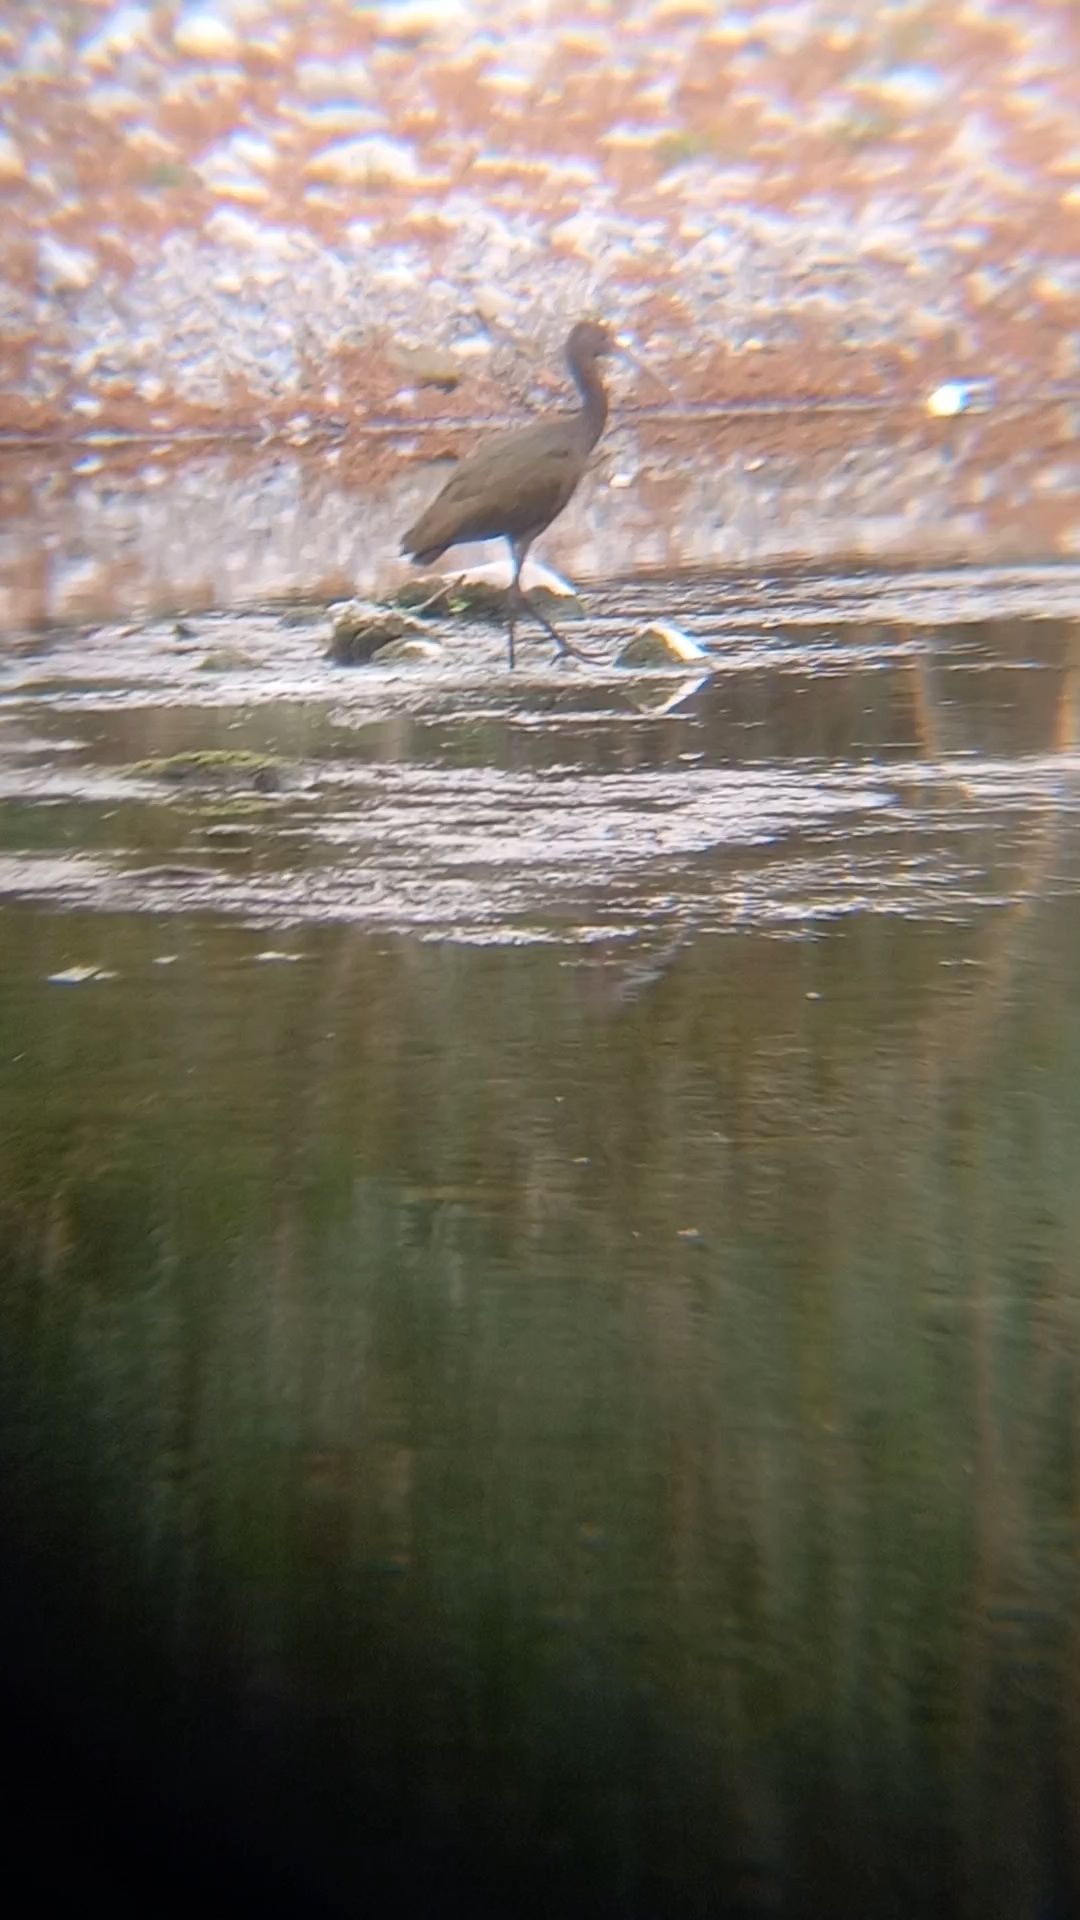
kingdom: Animalia
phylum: Chordata
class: Aves
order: Pelecaniformes
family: Threskiornithidae
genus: Plegadis
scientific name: Plegadis chihi
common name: White-faced ibis
